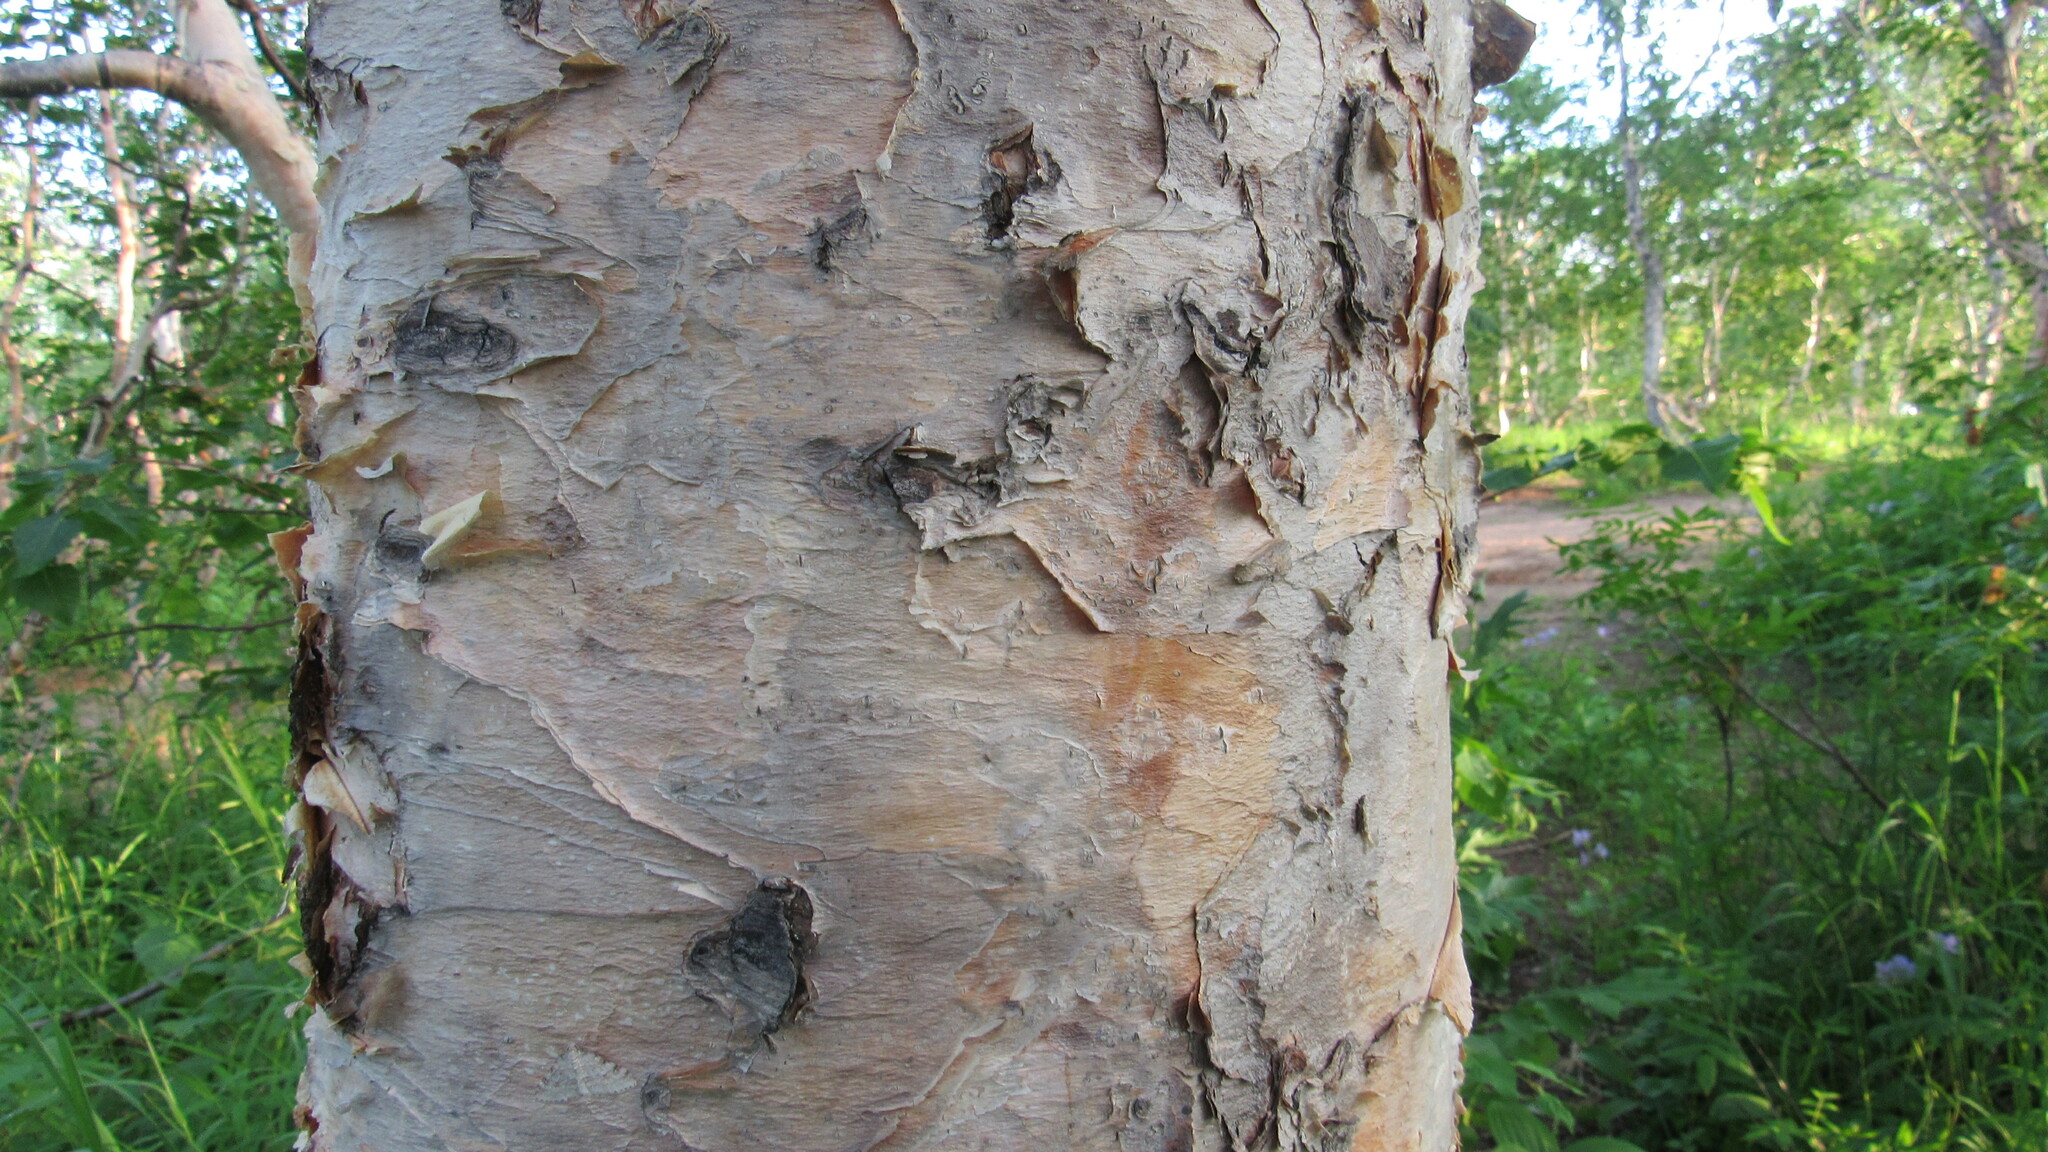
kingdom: Plantae
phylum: Tracheophyta
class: Magnoliopsida
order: Fagales
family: Betulaceae
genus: Betula
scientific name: Betula ermanii
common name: Erman's birch
